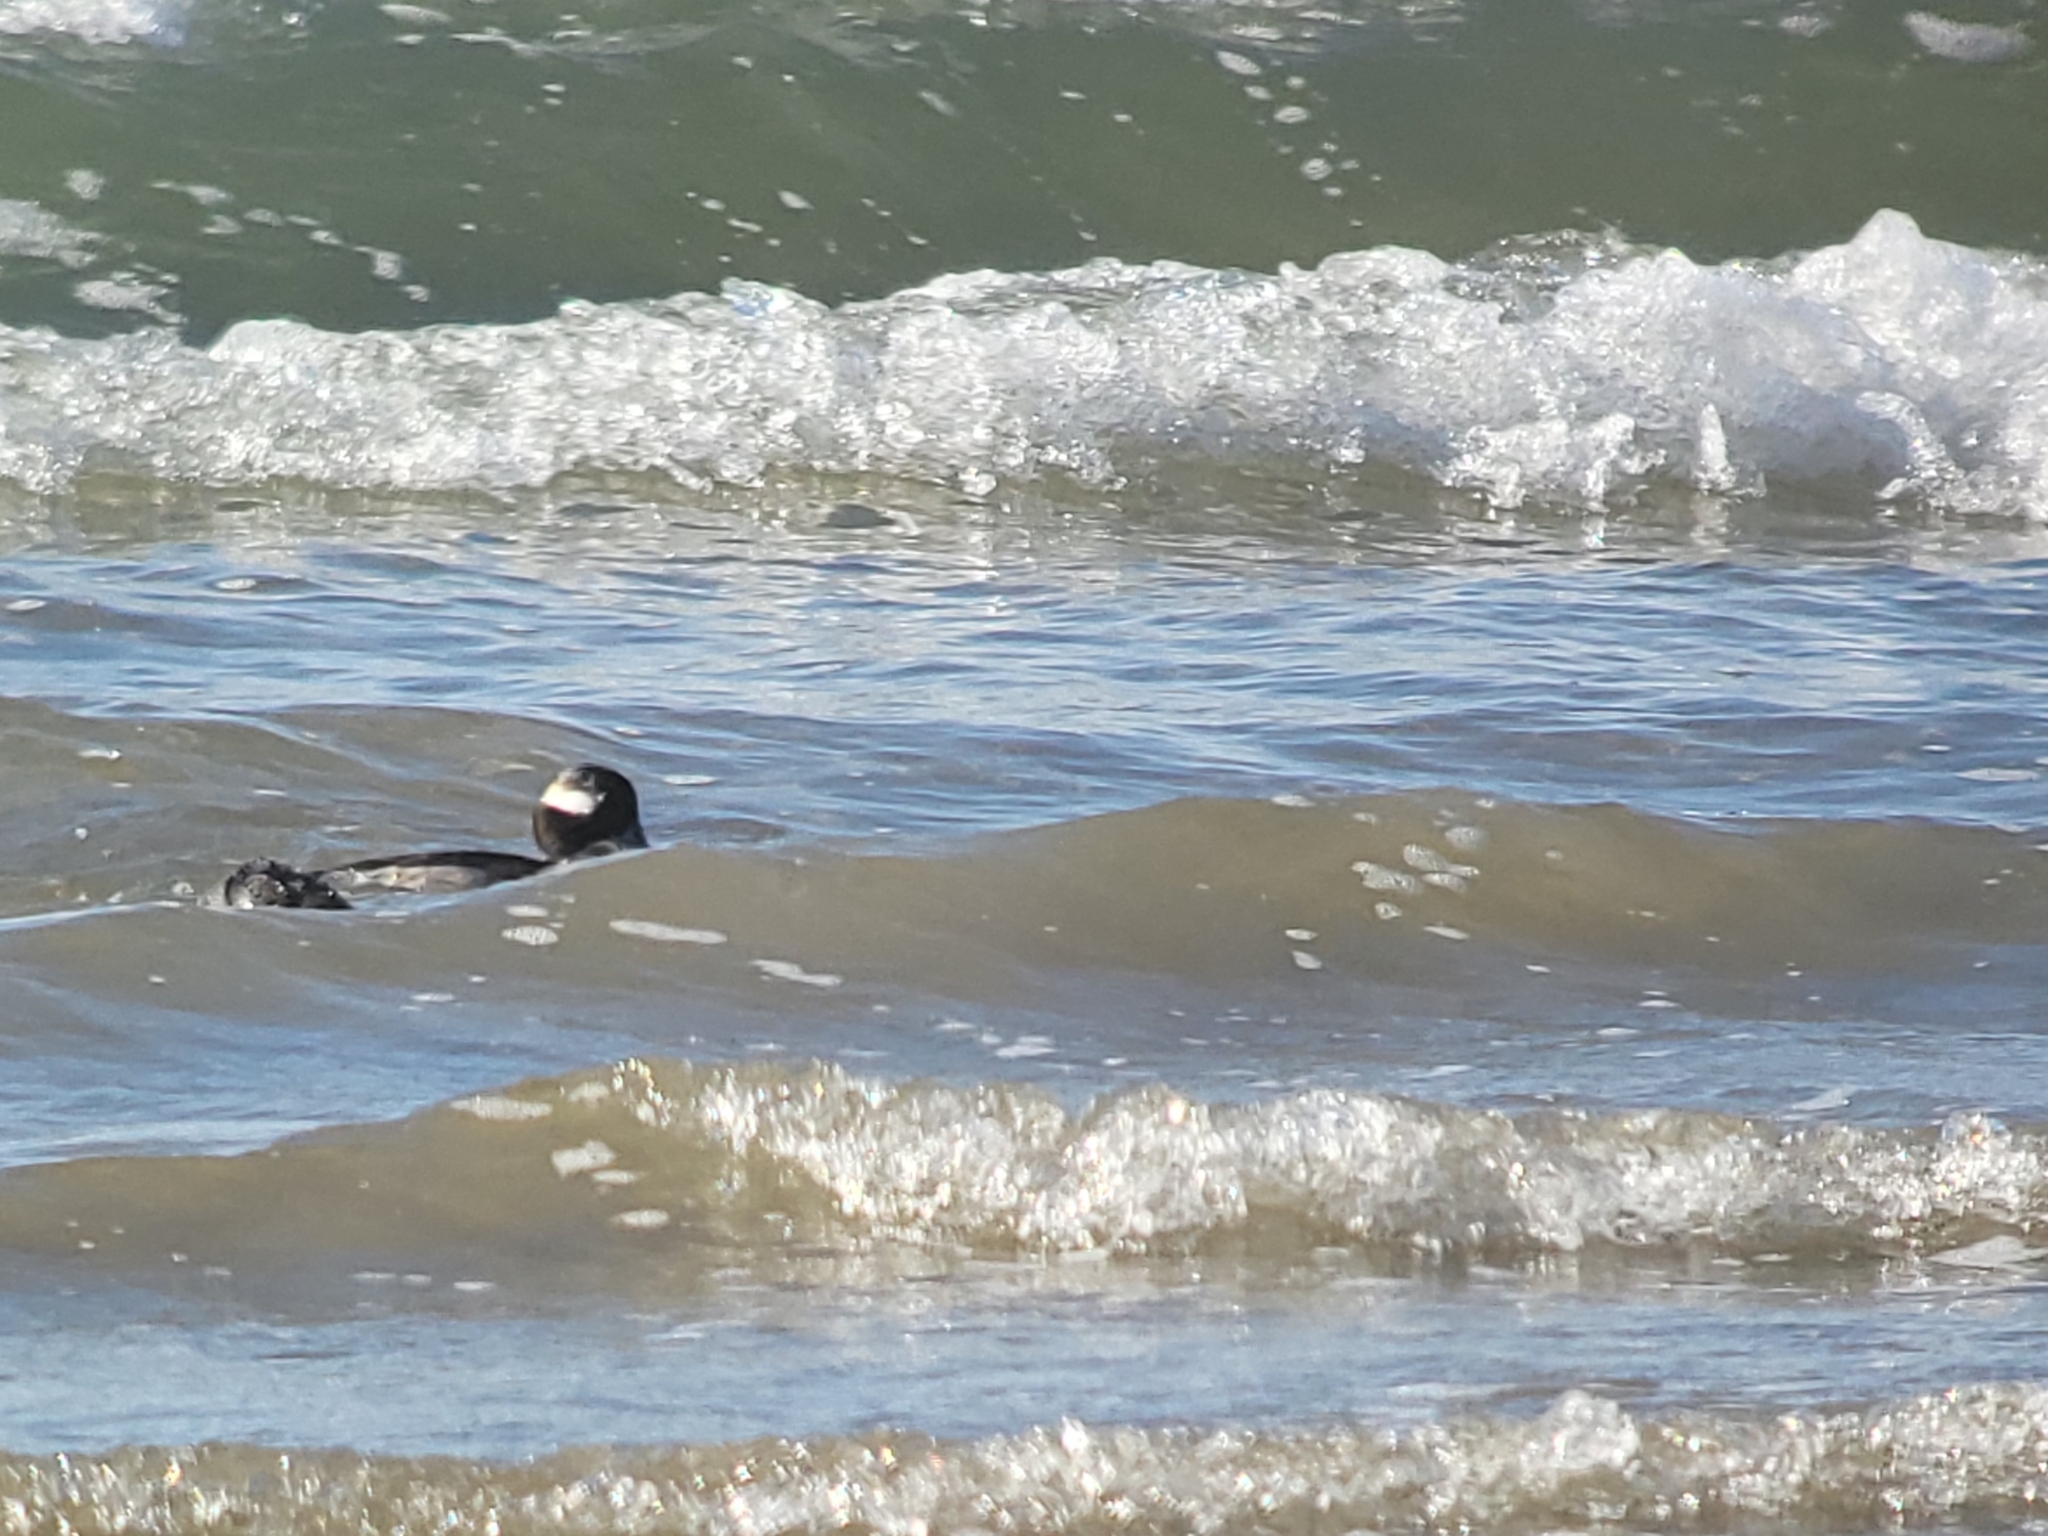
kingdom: Animalia
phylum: Chordata
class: Aves
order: Anseriformes
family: Anatidae
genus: Bucephala
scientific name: Bucephala albeola
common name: Bufflehead
